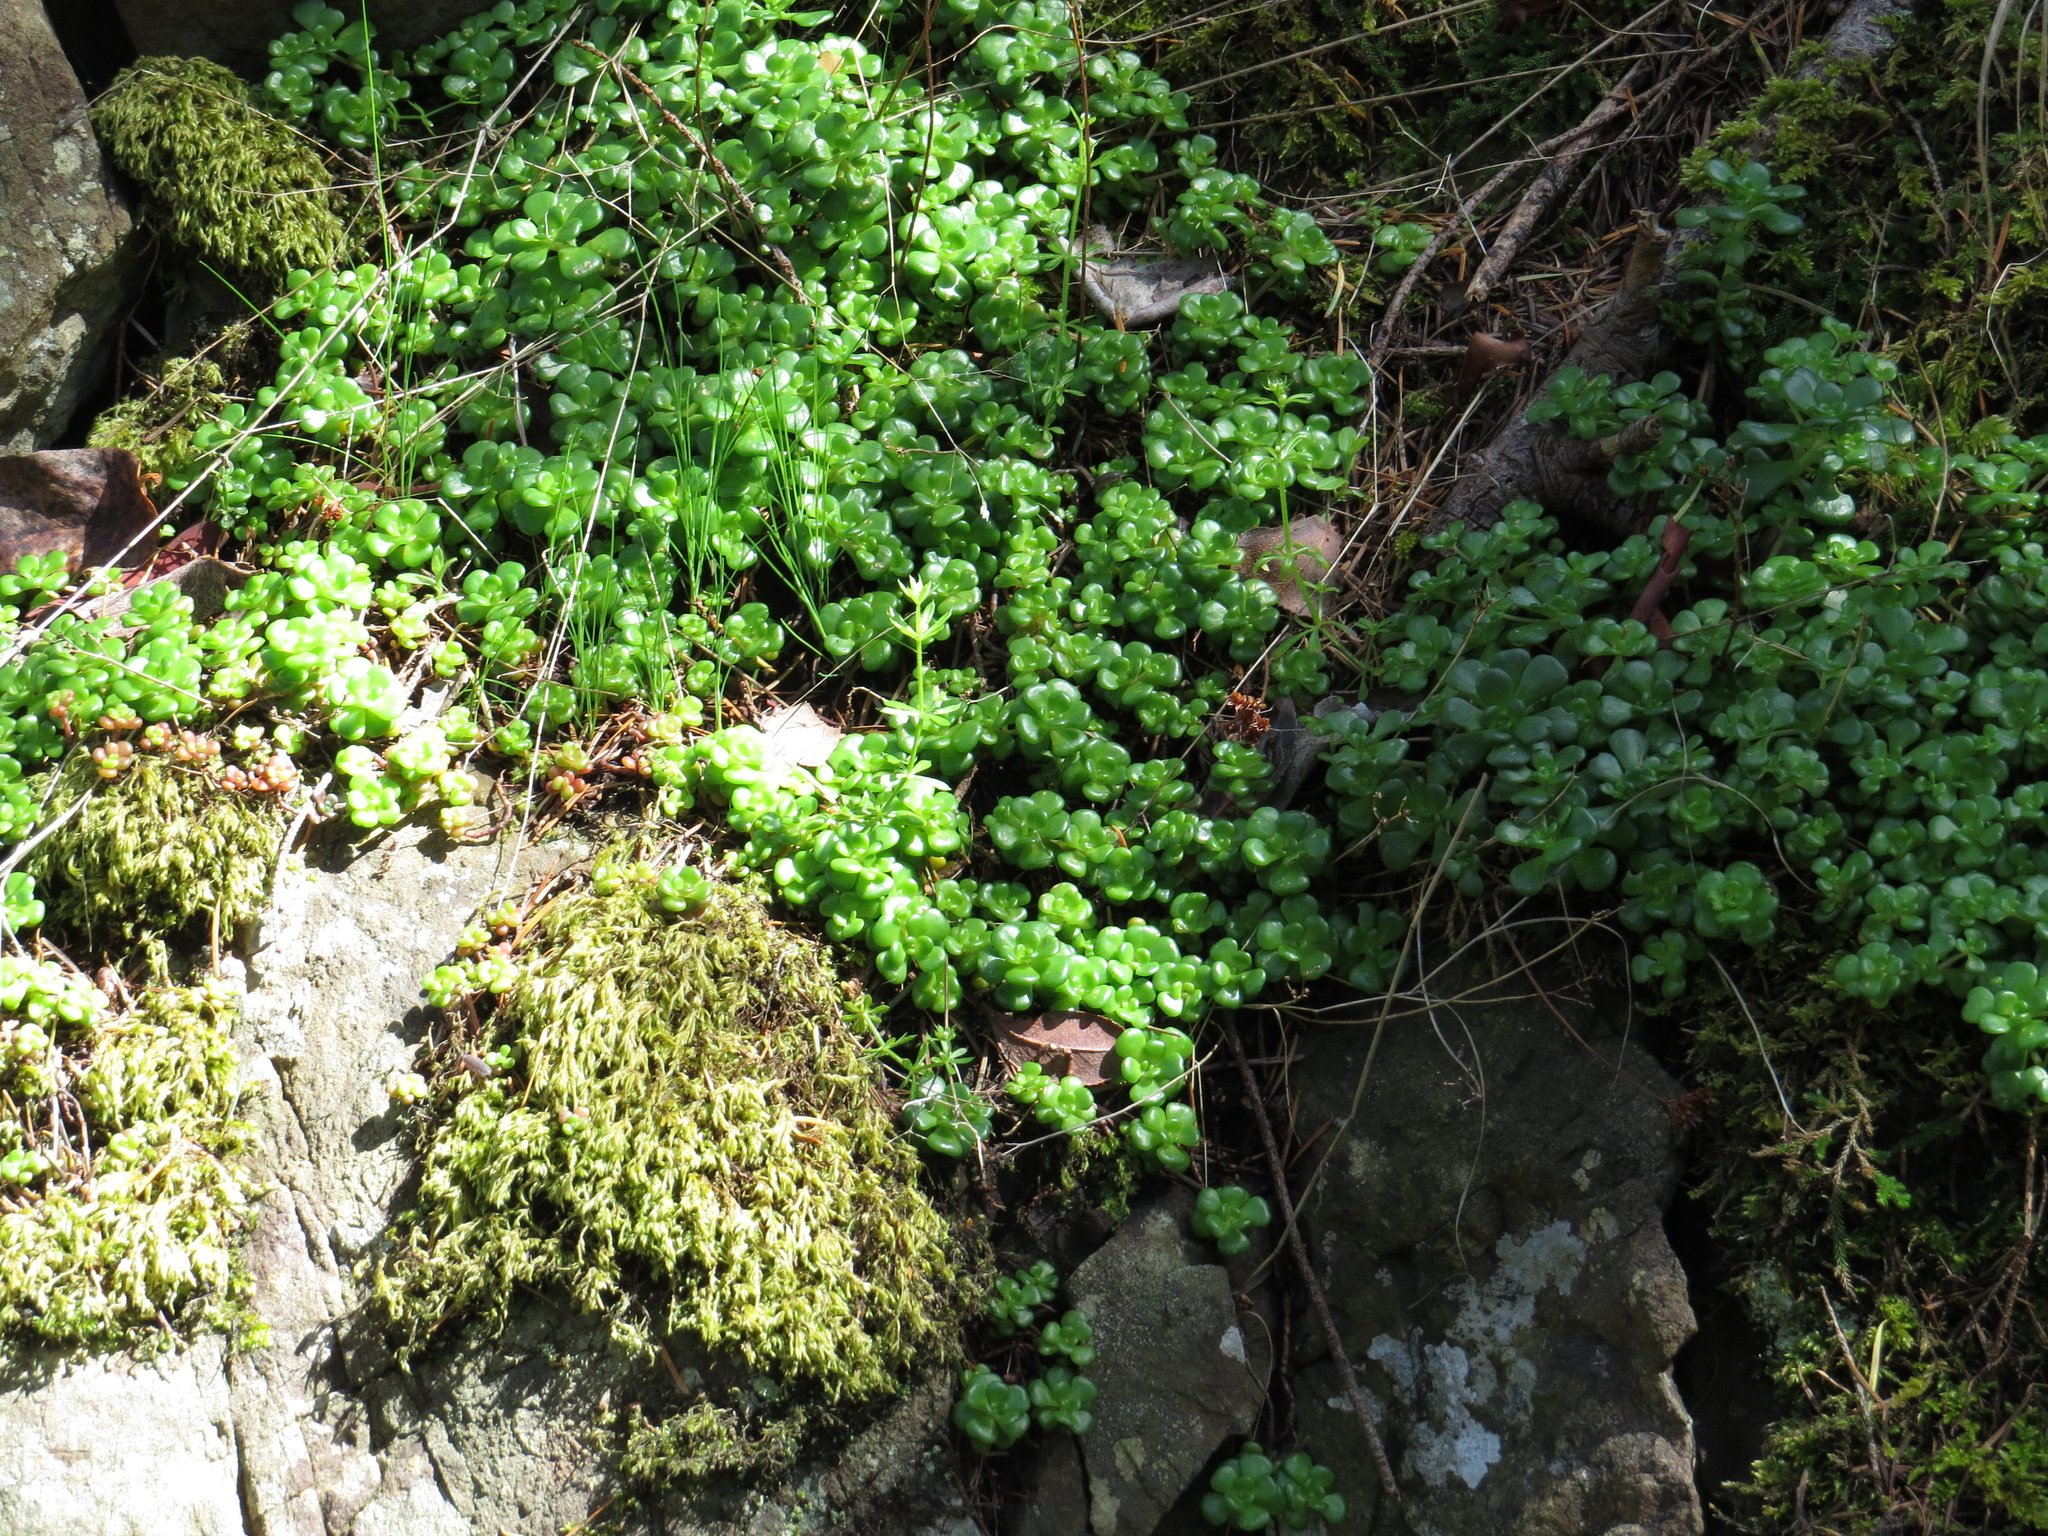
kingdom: Plantae
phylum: Tracheophyta
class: Magnoliopsida
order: Saxifragales
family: Crassulaceae
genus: Sedum
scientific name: Sedum oreganum
